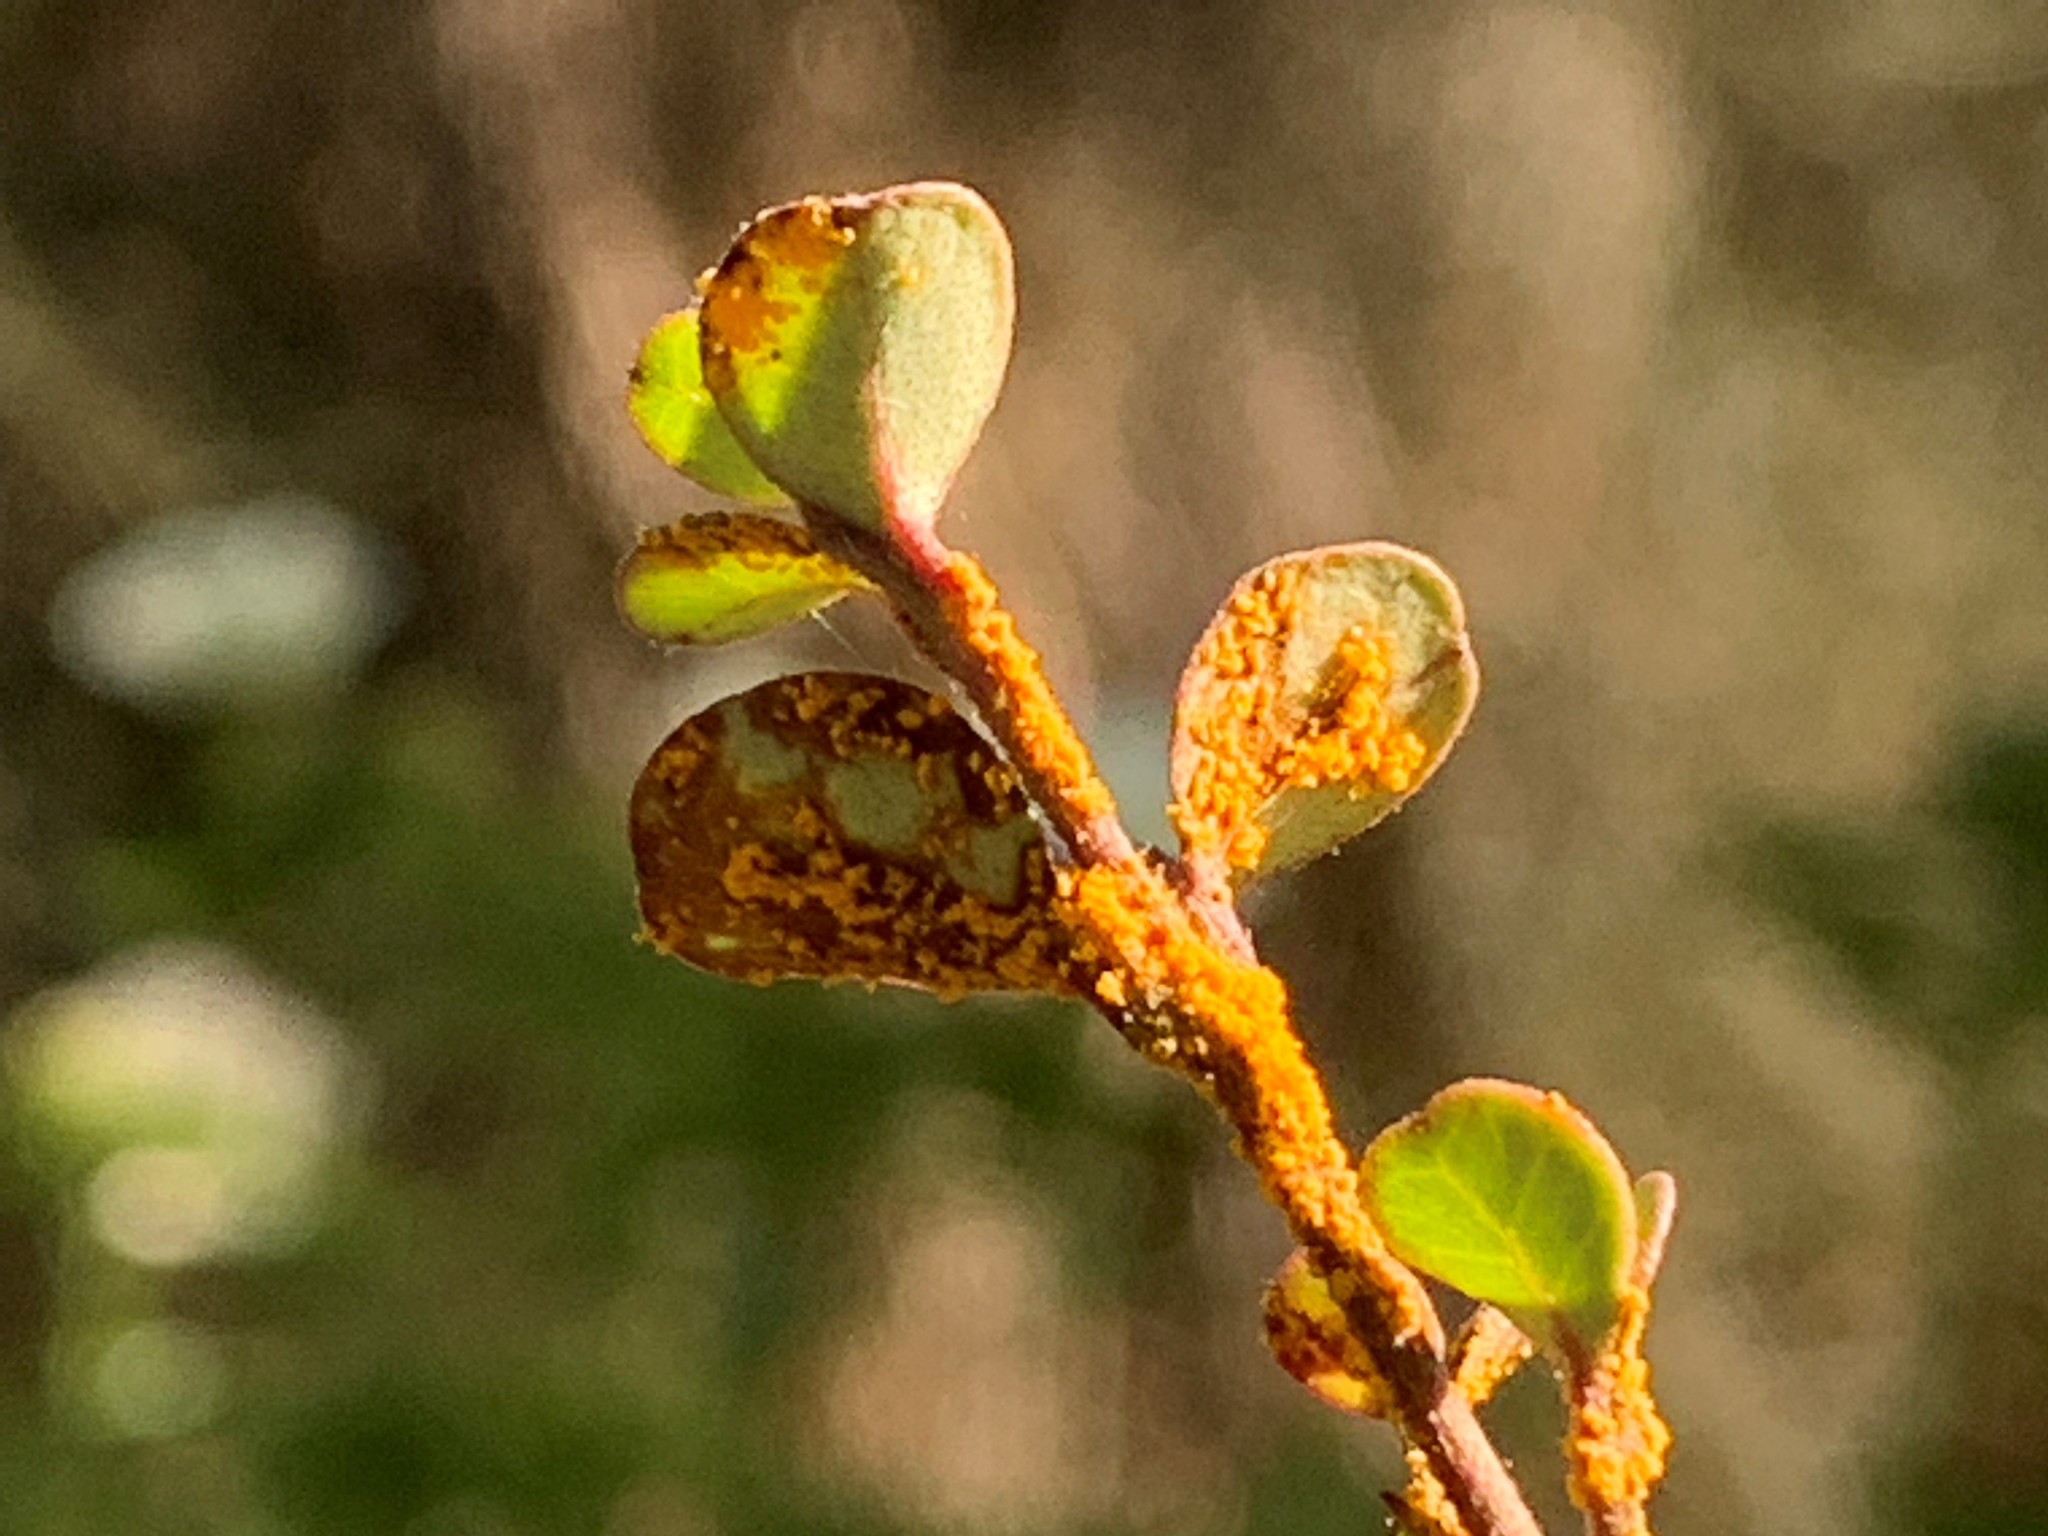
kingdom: Fungi
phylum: Basidiomycota
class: Pucciniomycetes
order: Pucciniales
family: Sphaerophragmiaceae
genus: Austropuccinia
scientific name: Austropuccinia psidii
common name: Myrtle rust
